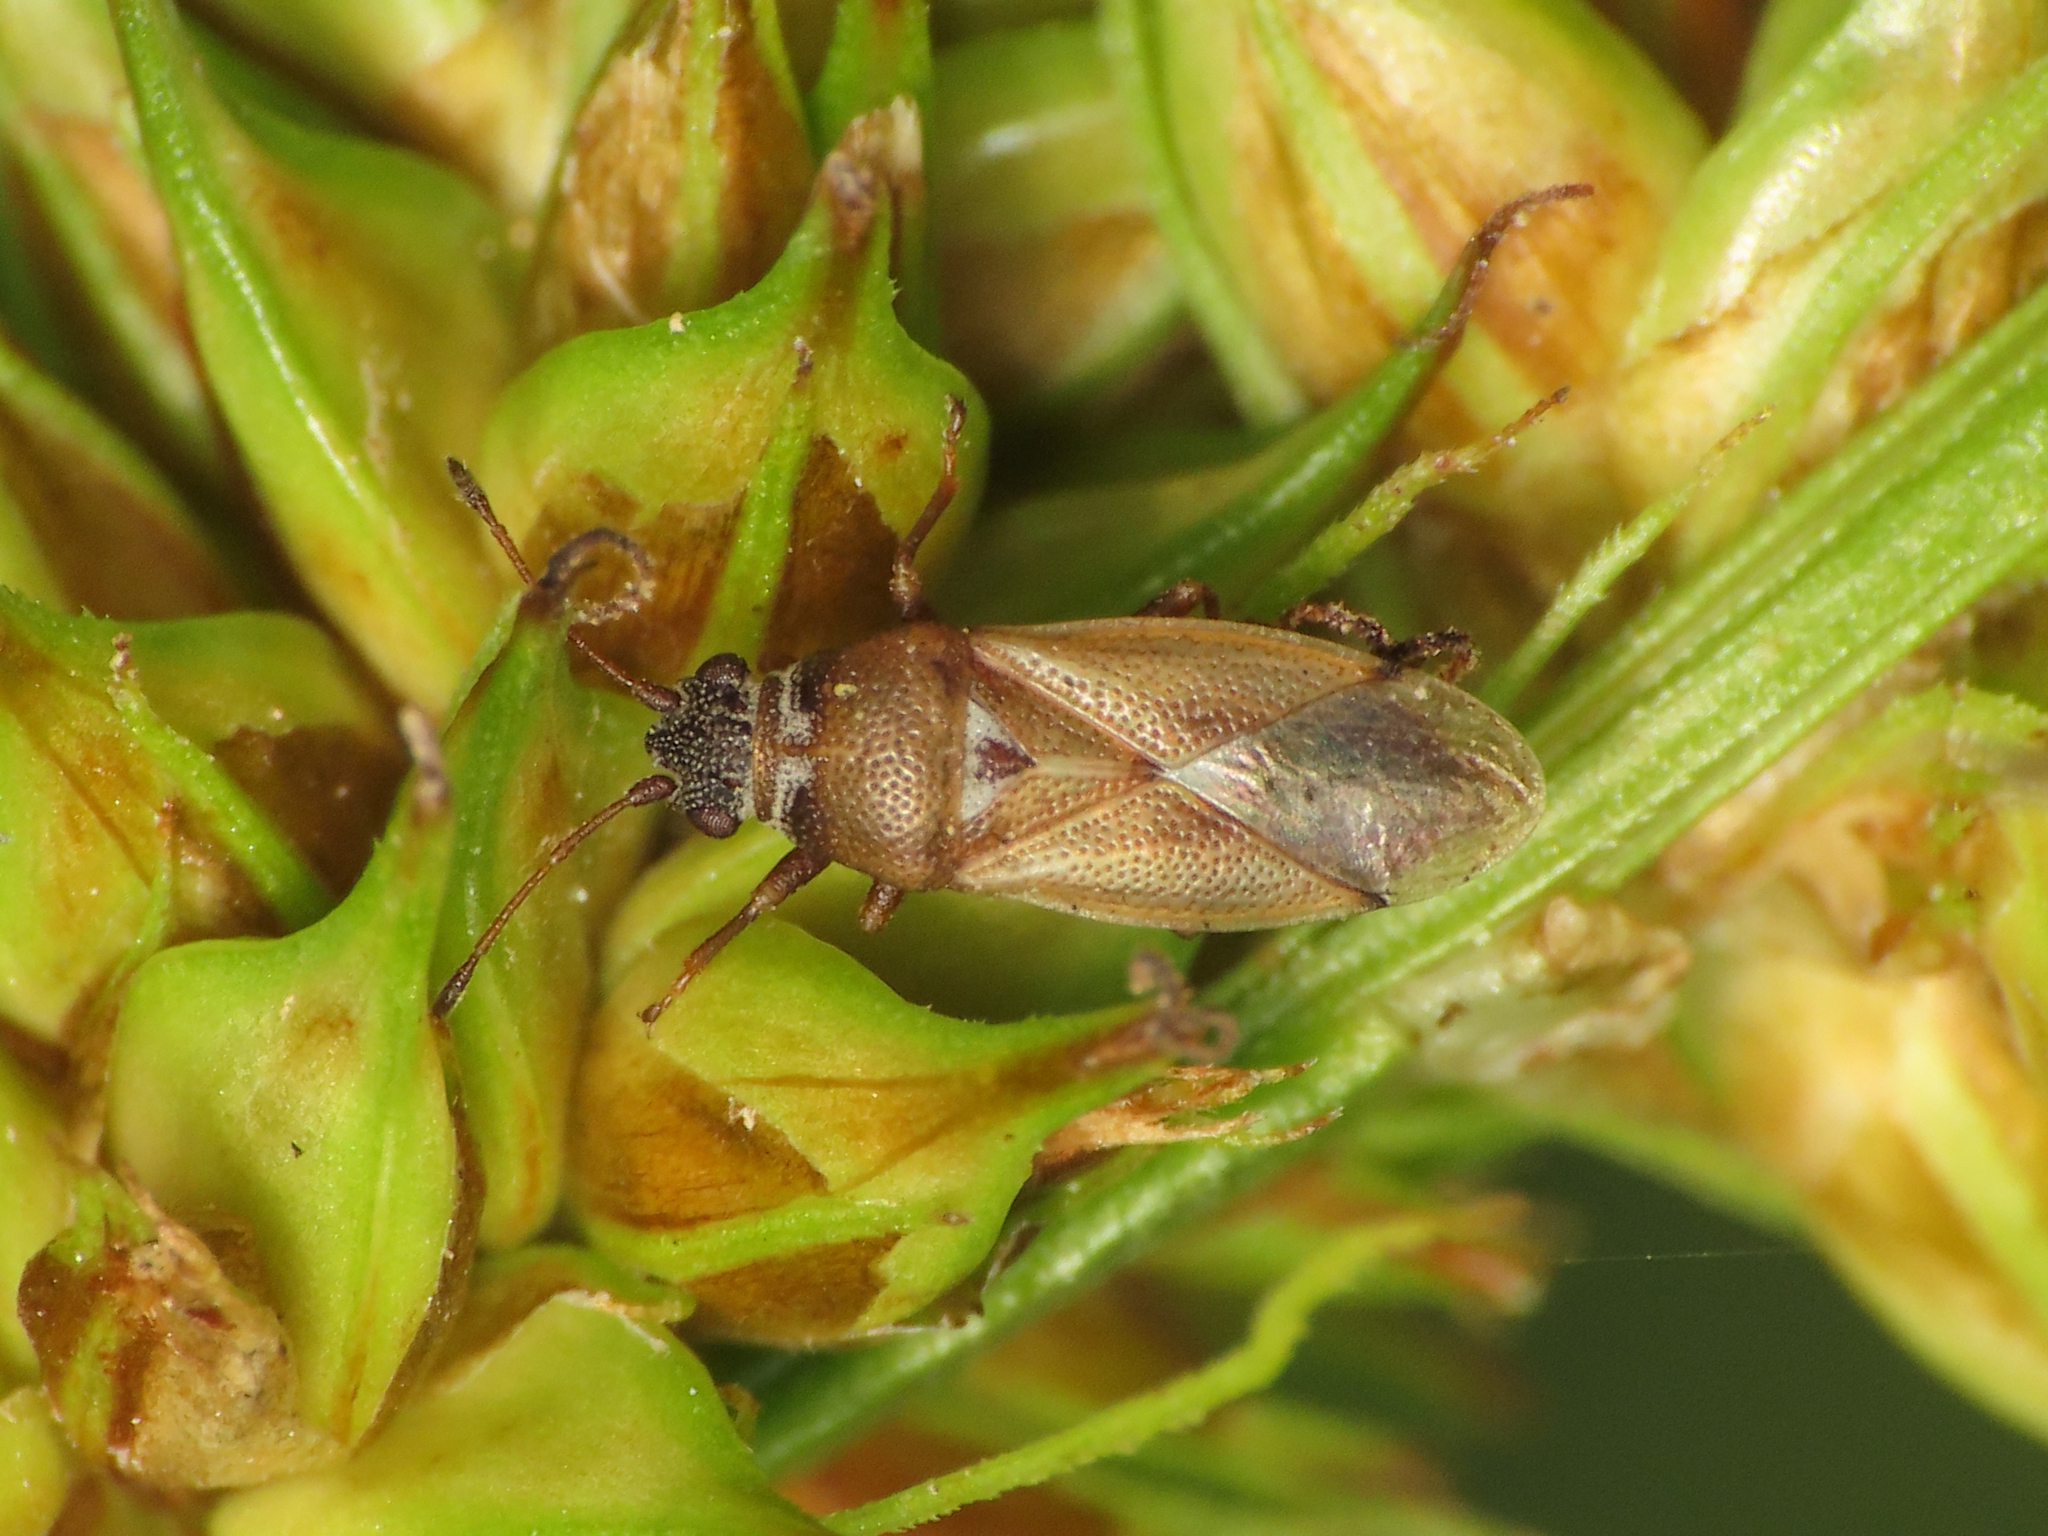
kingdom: Animalia
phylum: Arthropoda
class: Insecta
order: Hemiptera
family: Cymidae
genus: Cymus
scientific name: Cymus melanocephalus
